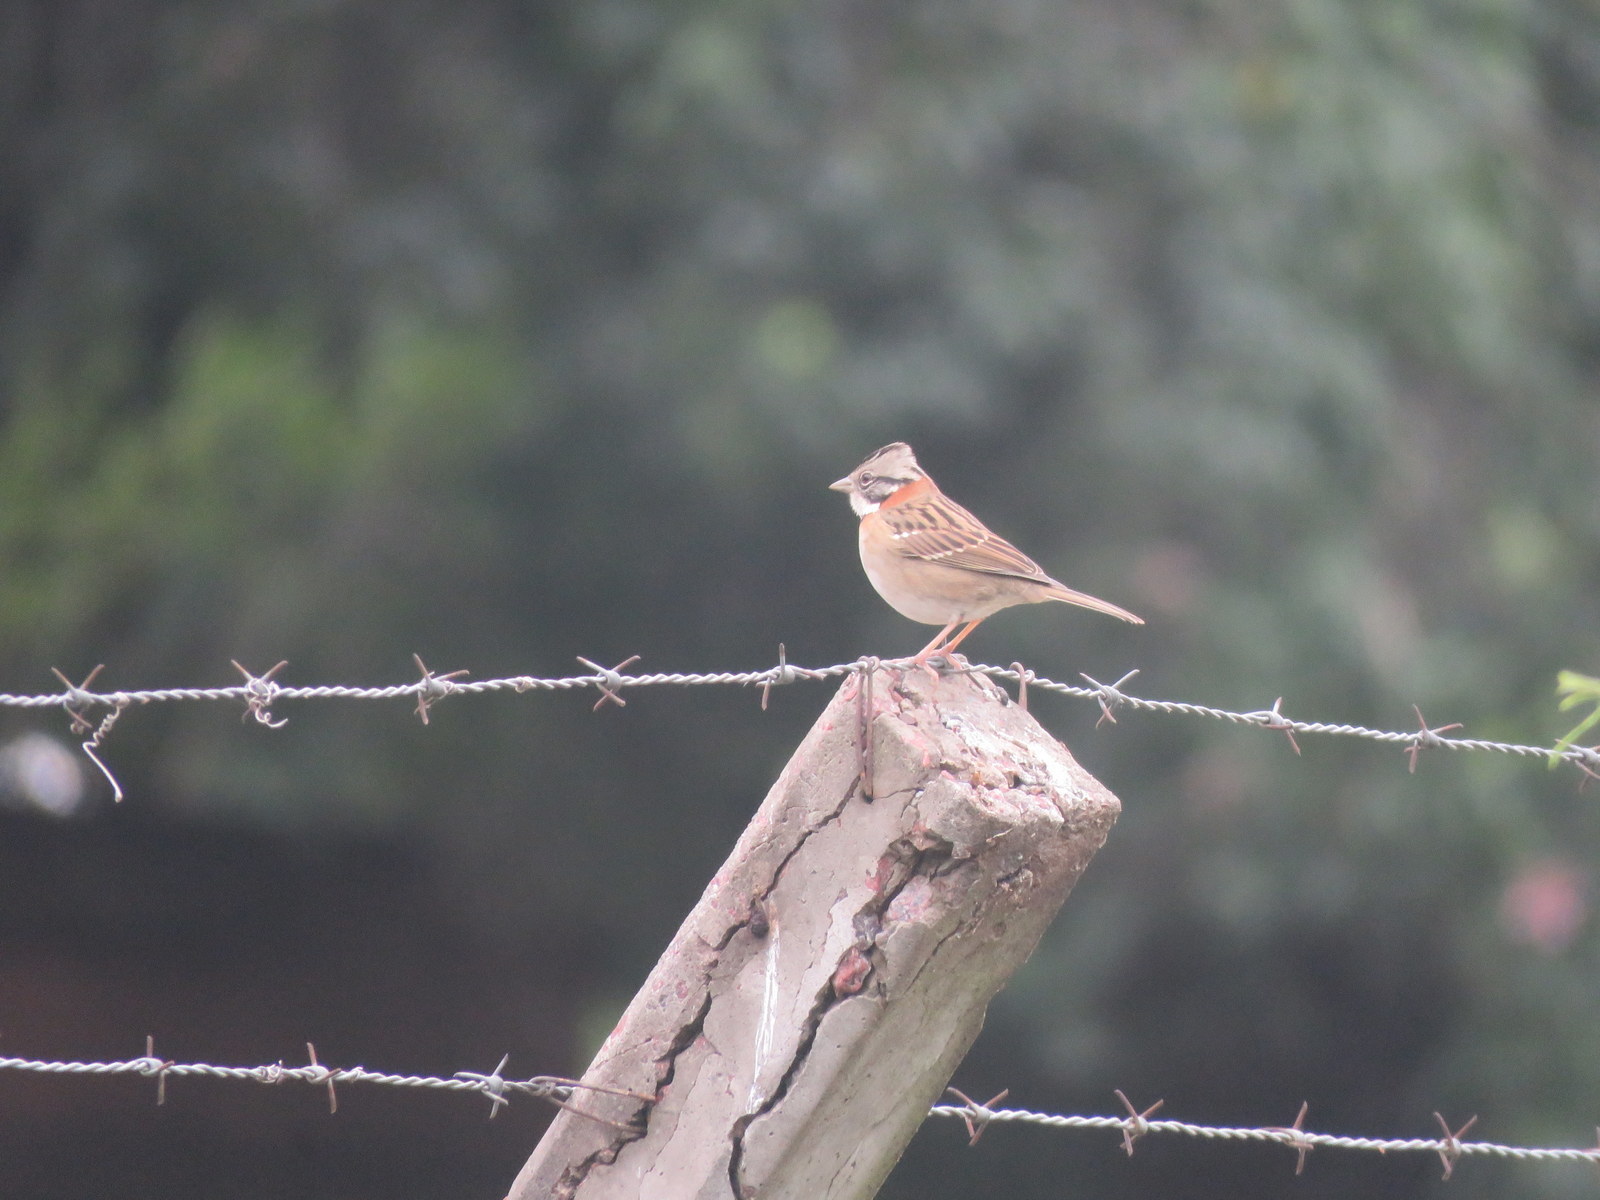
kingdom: Animalia
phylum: Chordata
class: Aves
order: Passeriformes
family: Passerellidae
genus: Zonotrichia
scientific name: Zonotrichia capensis
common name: Rufous-collared sparrow
